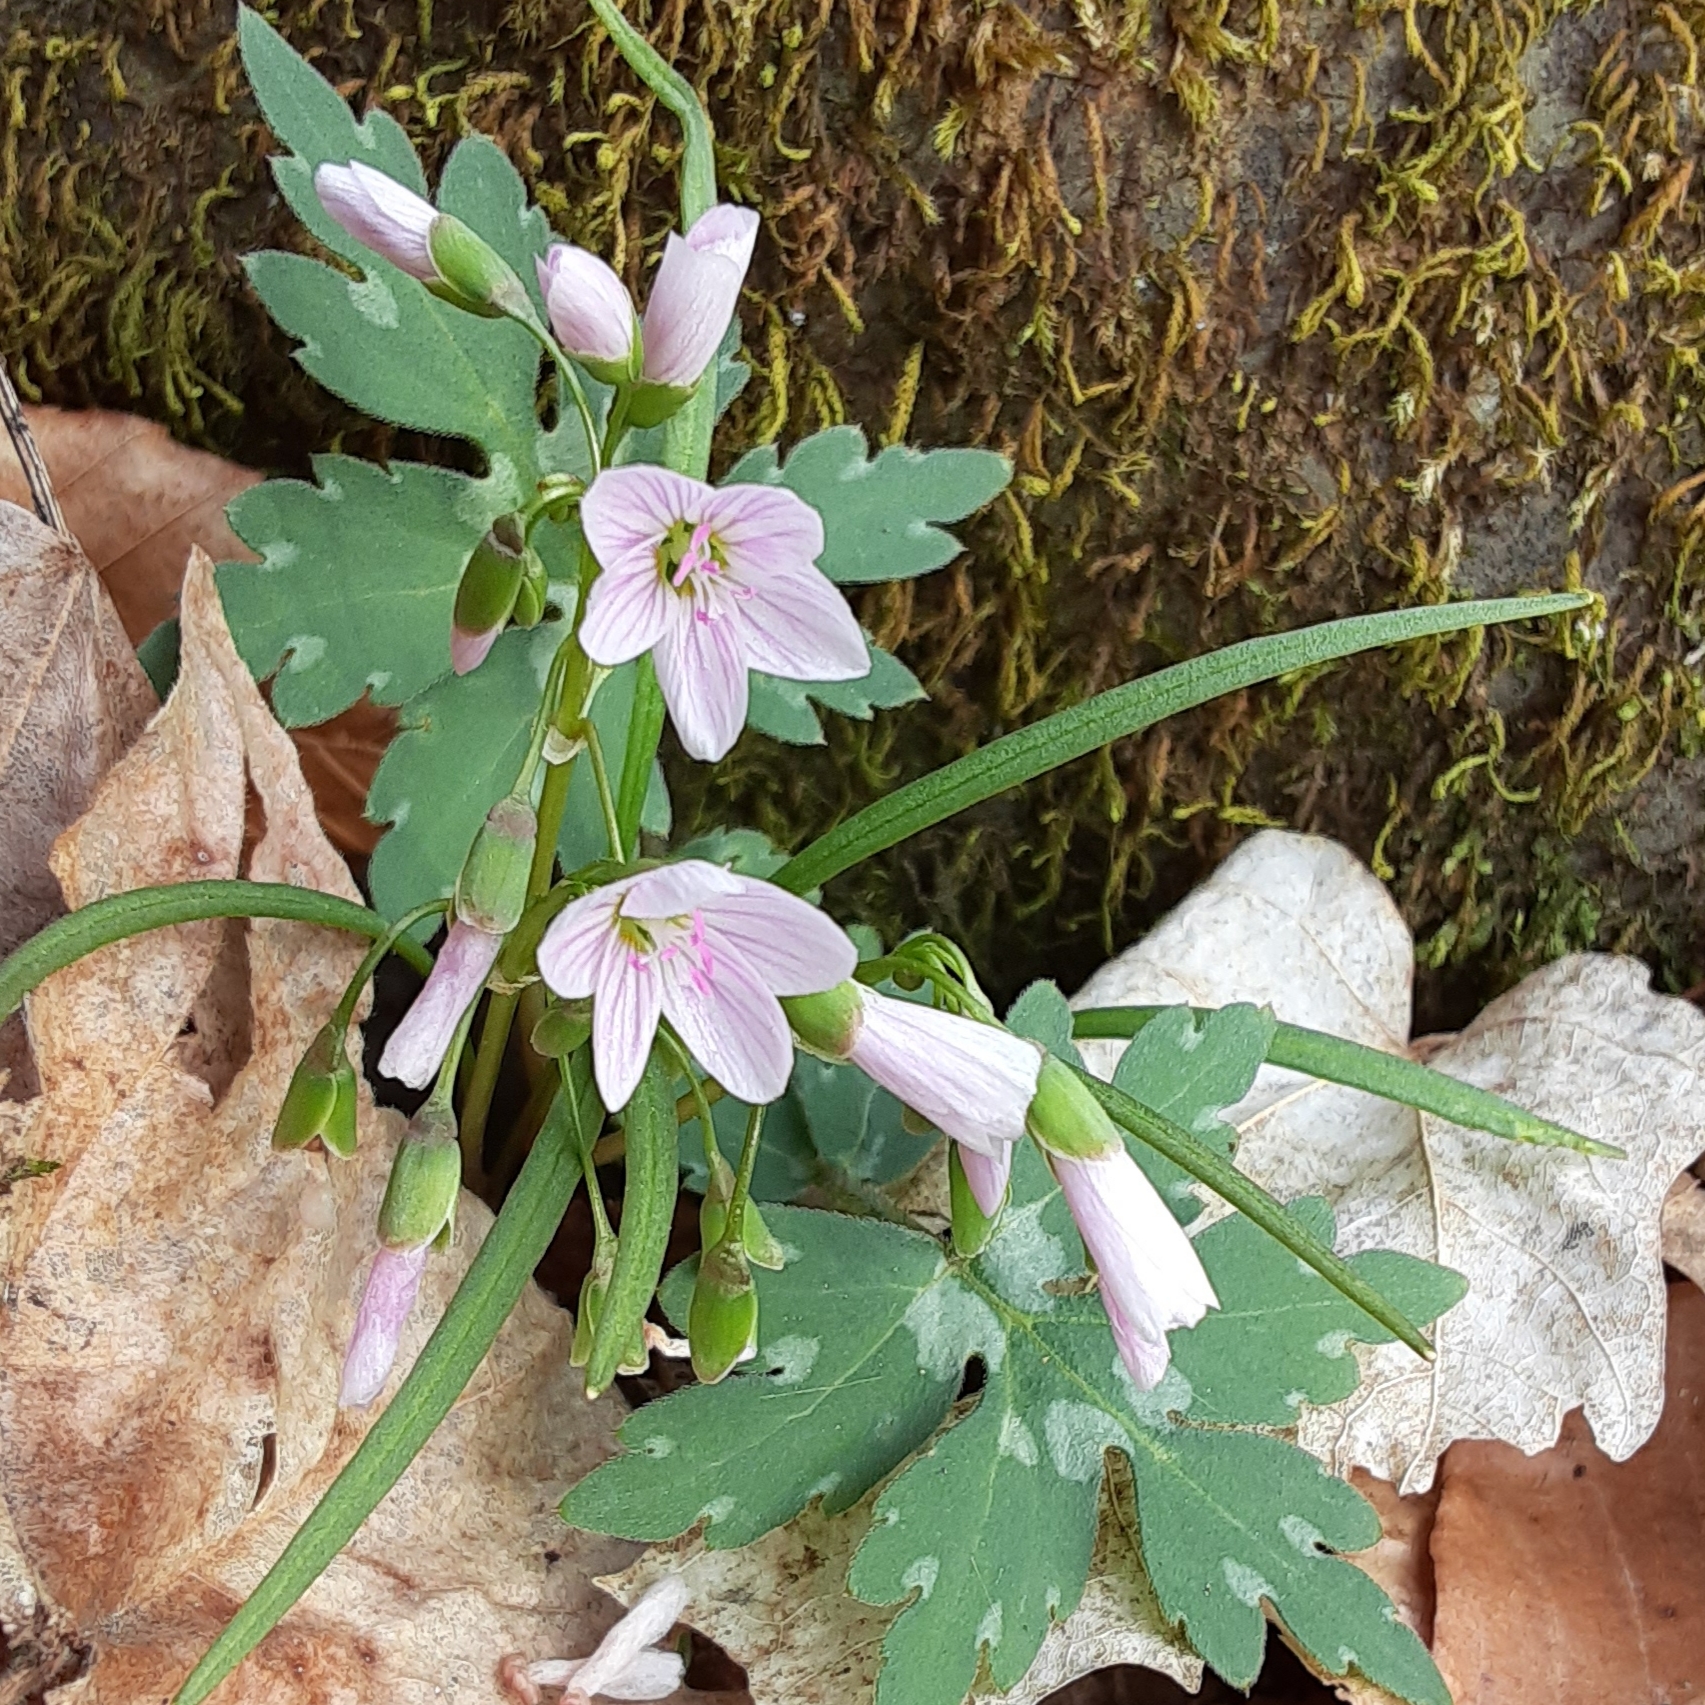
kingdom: Plantae
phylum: Tracheophyta
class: Magnoliopsida
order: Caryophyllales
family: Montiaceae
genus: Claytonia
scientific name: Claytonia virginica
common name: Virginia springbeauty
